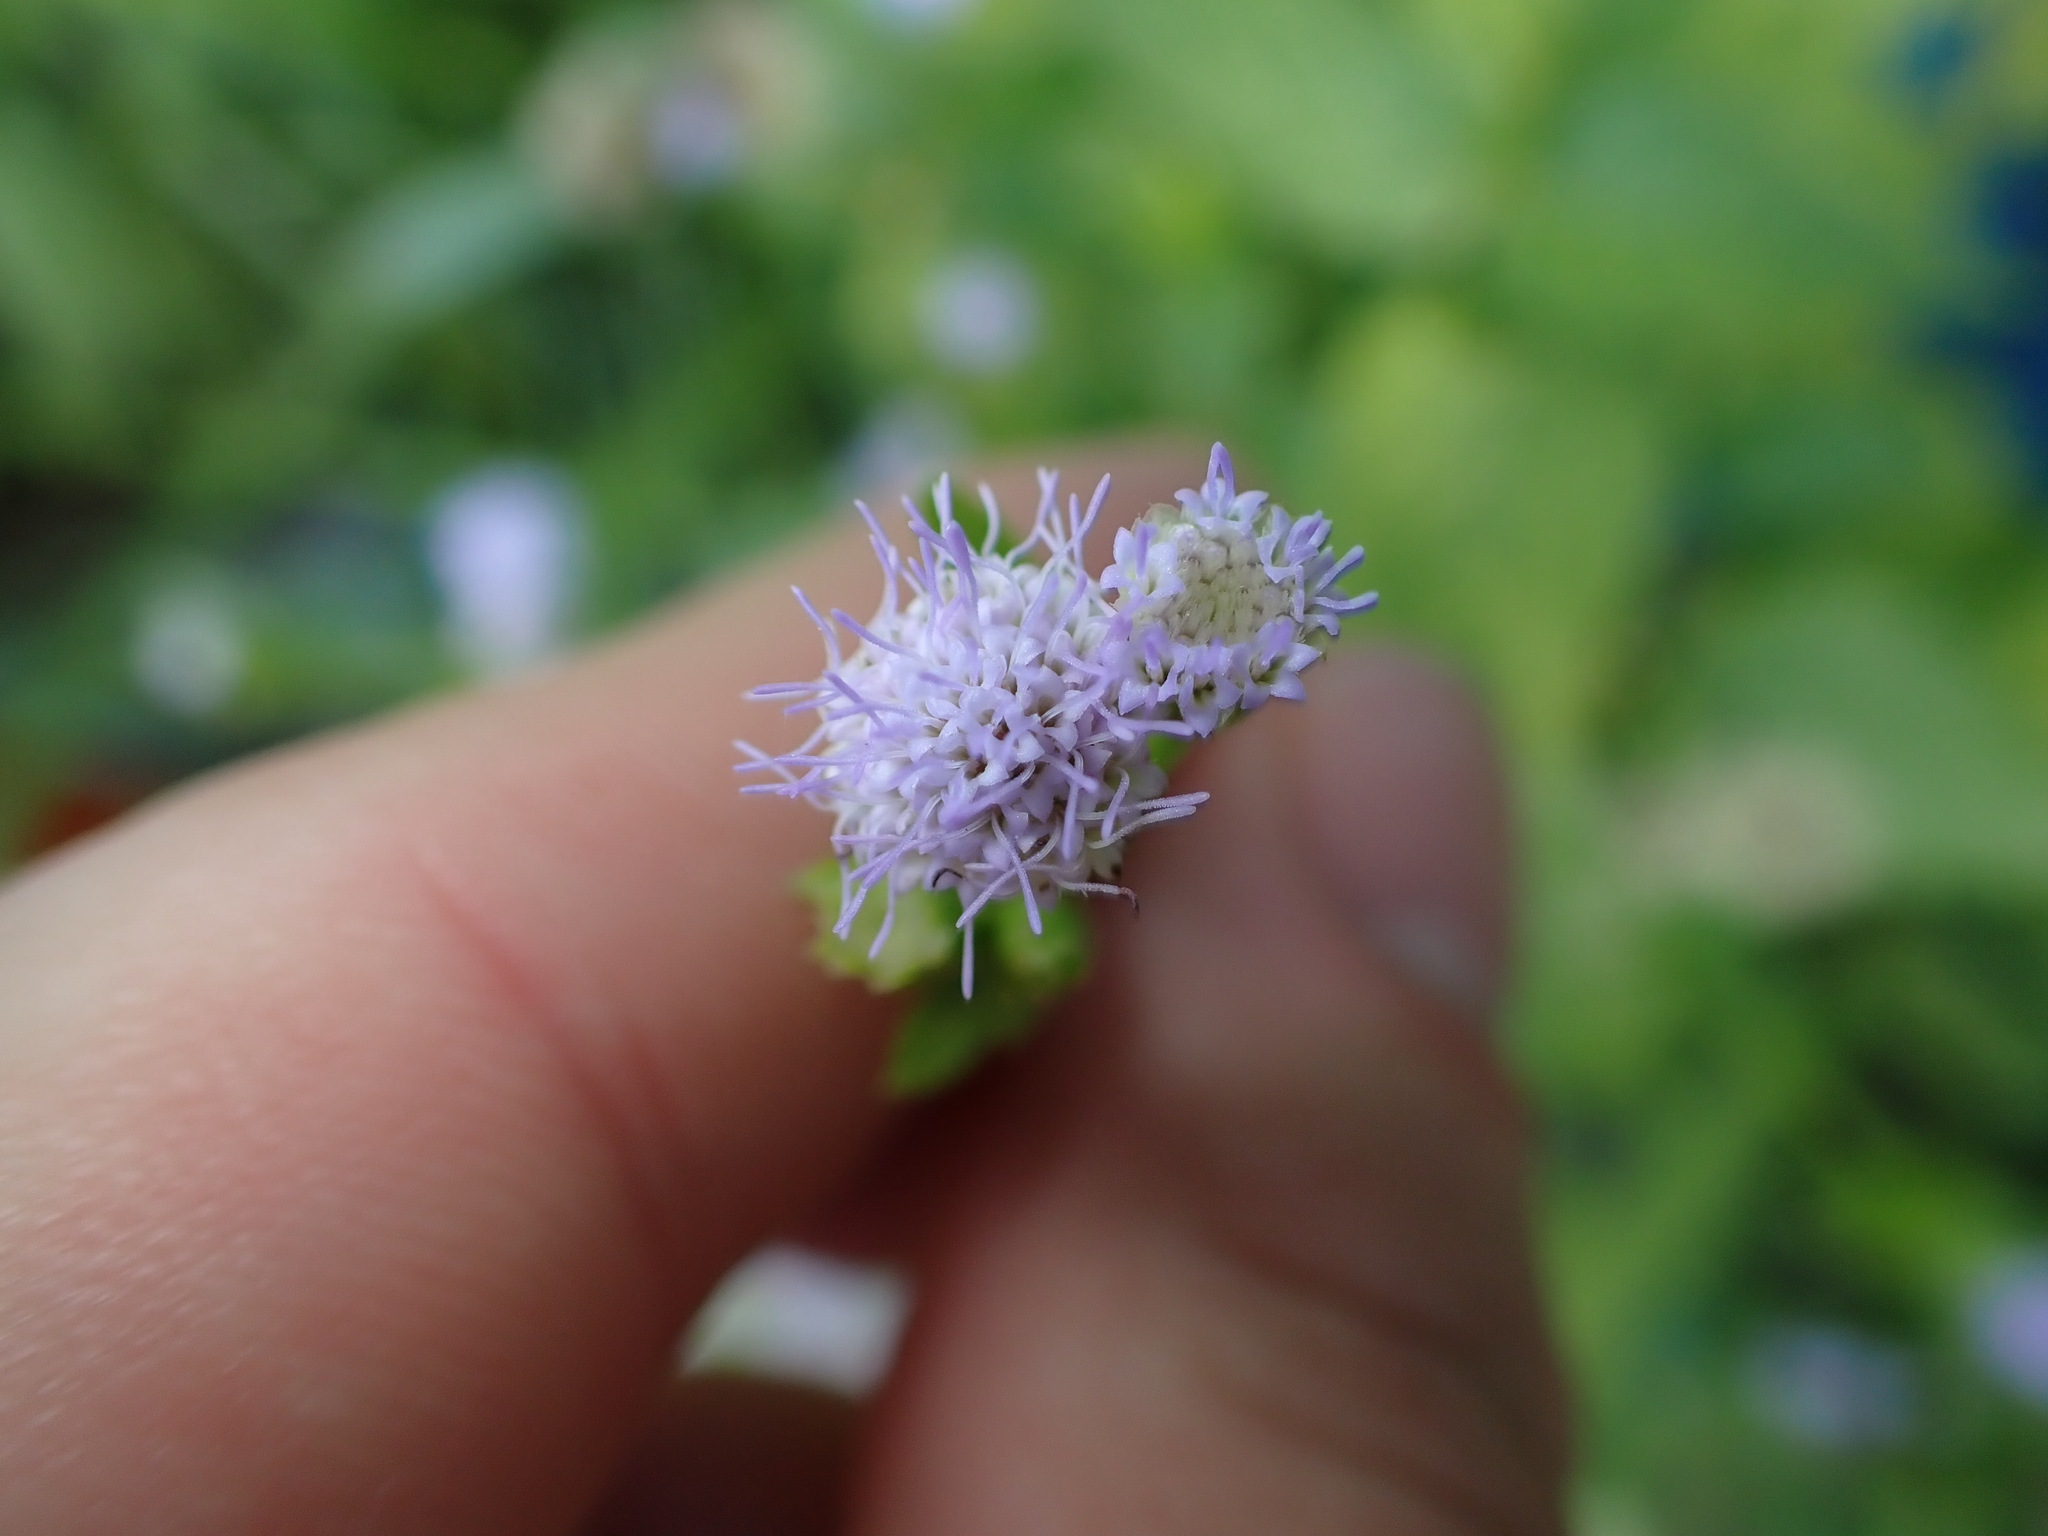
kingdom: Plantae
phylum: Tracheophyta
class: Magnoliopsida
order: Asterales
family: Asteraceae
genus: Praxelis
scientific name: Praxelis clematidea
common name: Praxelis
